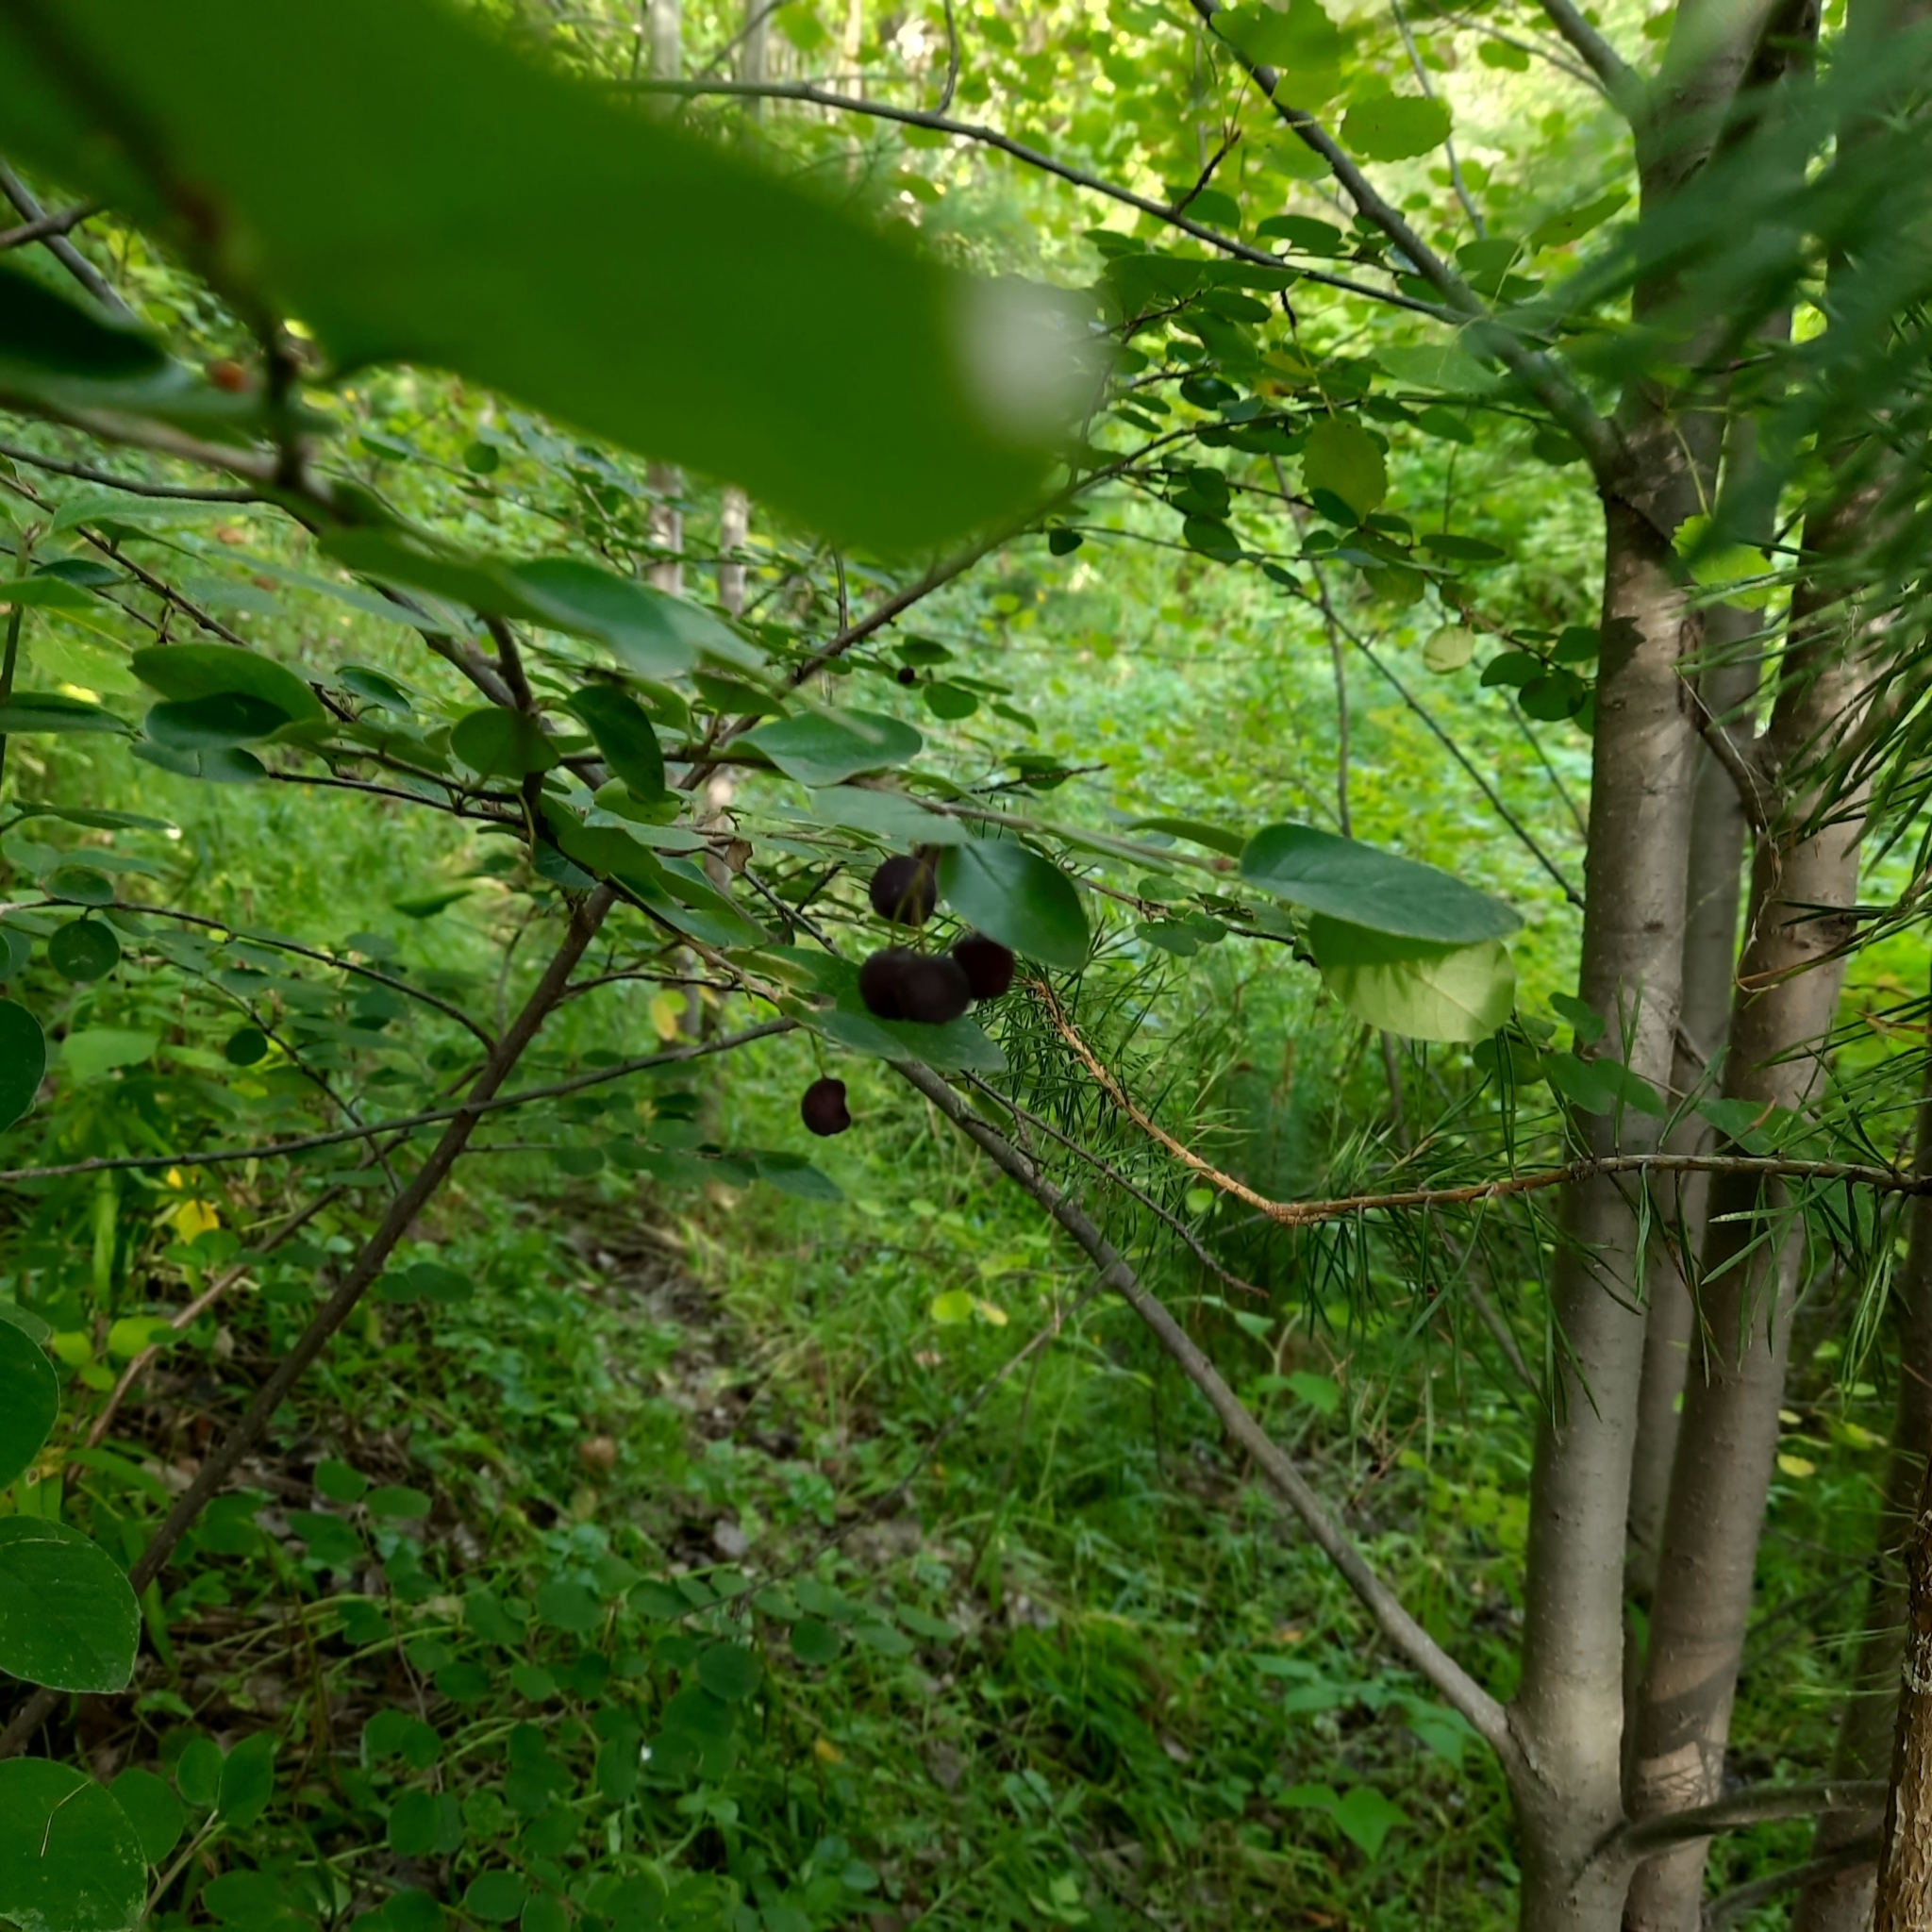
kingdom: Plantae
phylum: Tracheophyta
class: Magnoliopsida
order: Rosales
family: Rosaceae
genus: Cotoneaster
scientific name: Cotoneaster melanocarpus
